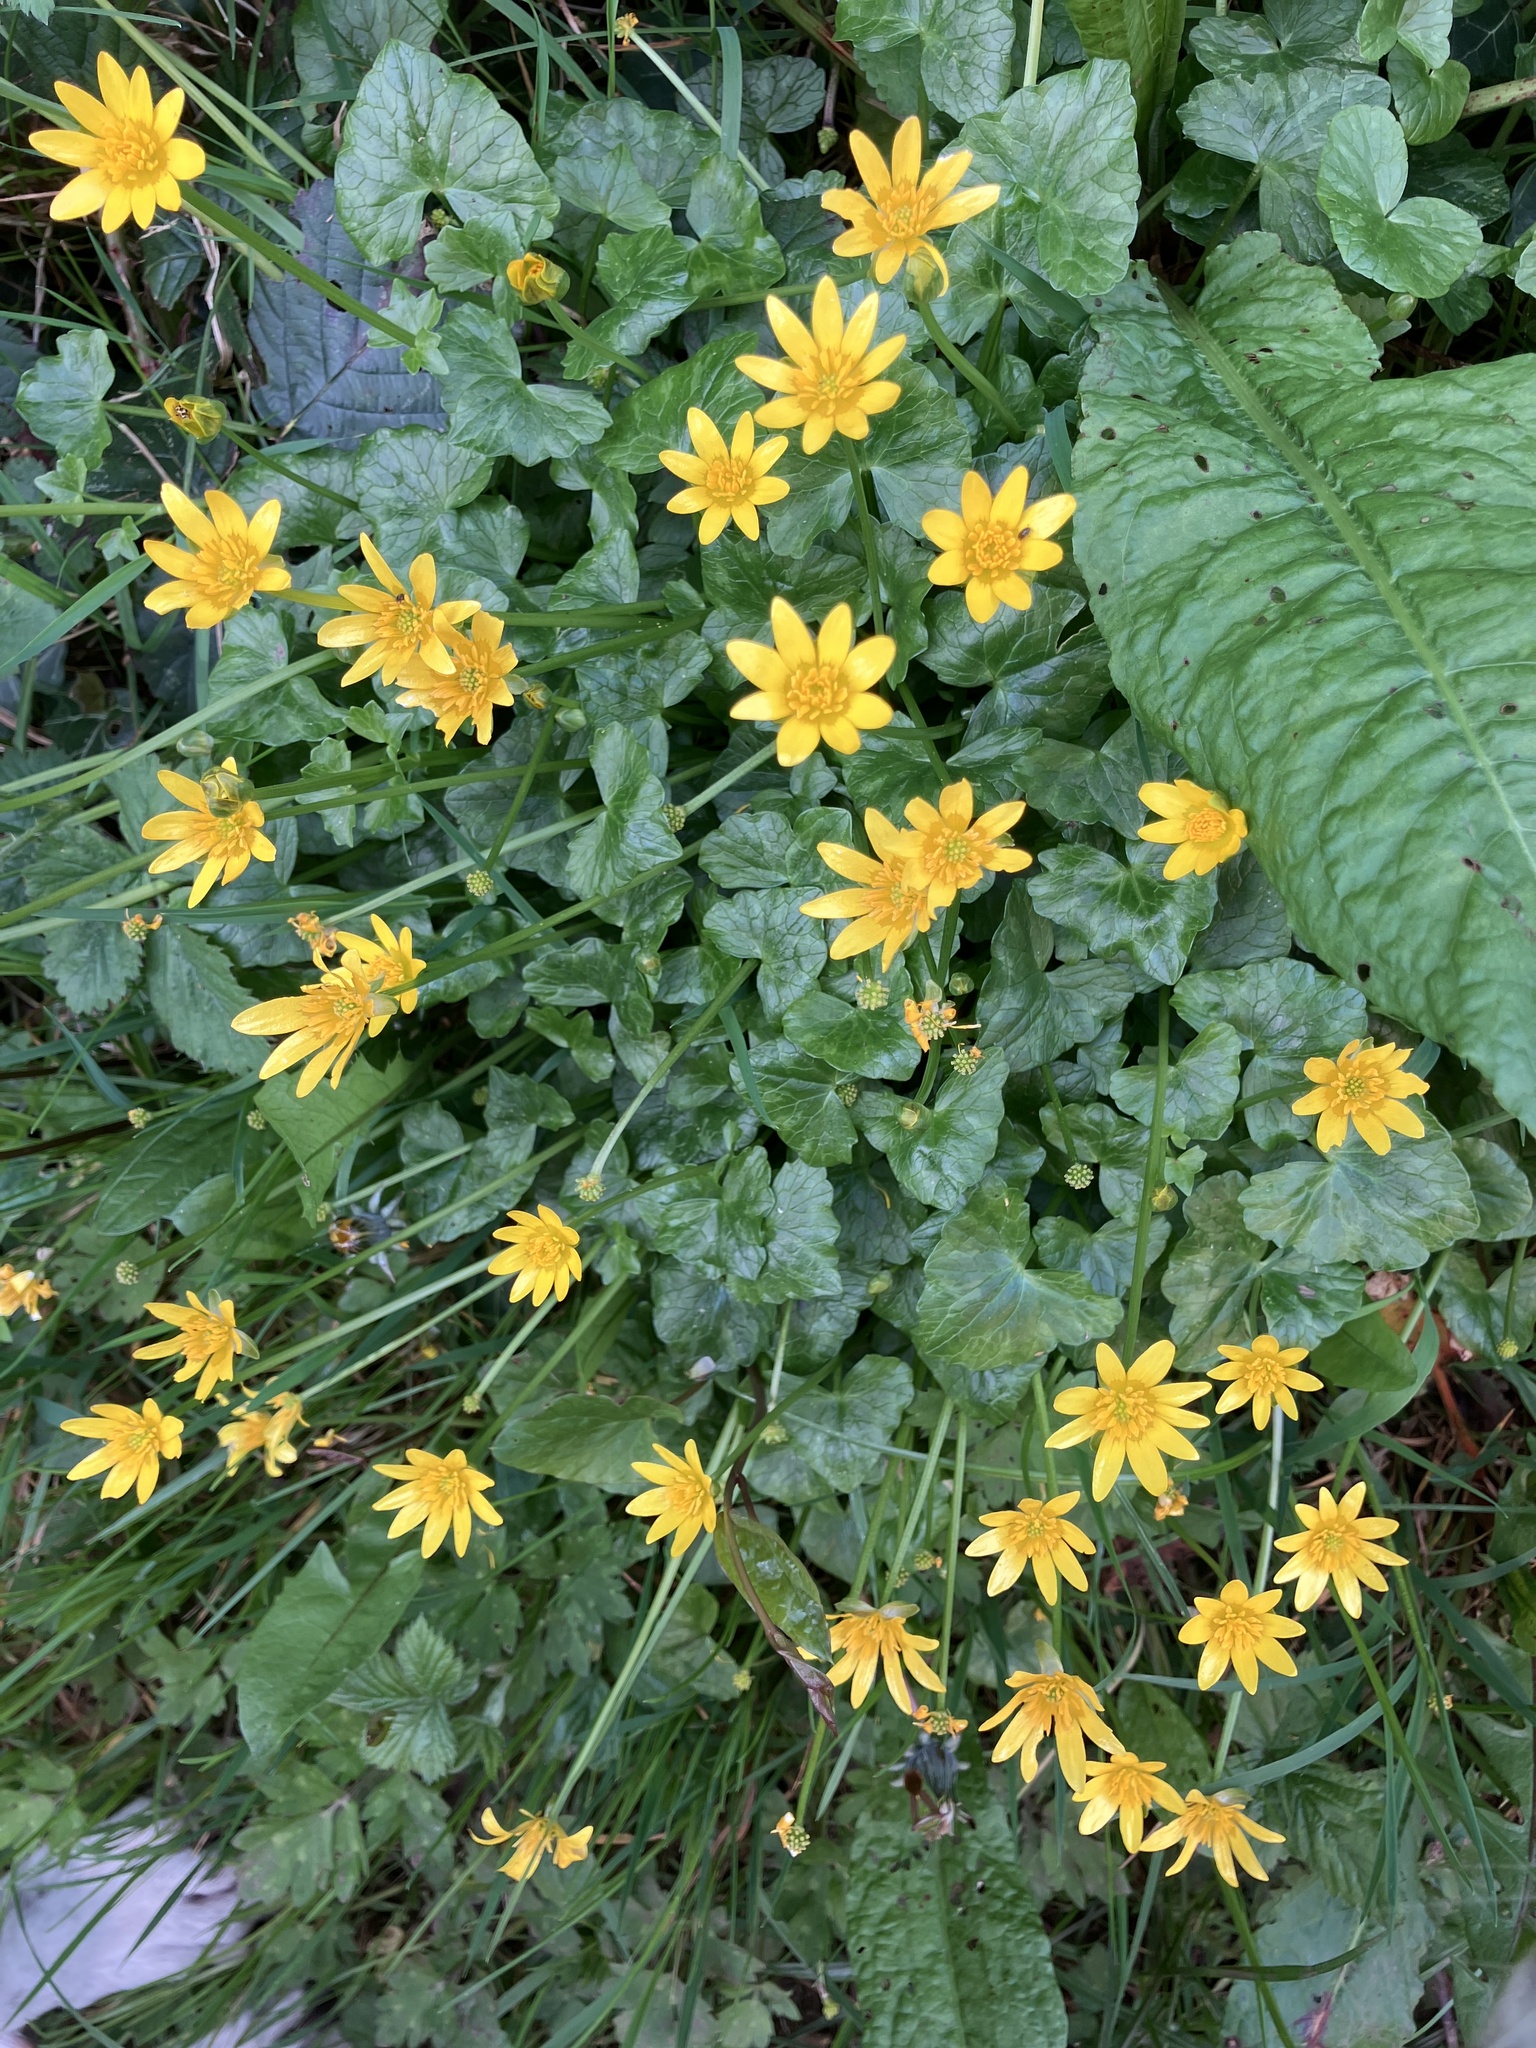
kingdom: Plantae
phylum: Tracheophyta
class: Magnoliopsida
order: Ranunculales
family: Ranunculaceae
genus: Ficaria
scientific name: Ficaria verna
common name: Lesser celandine
